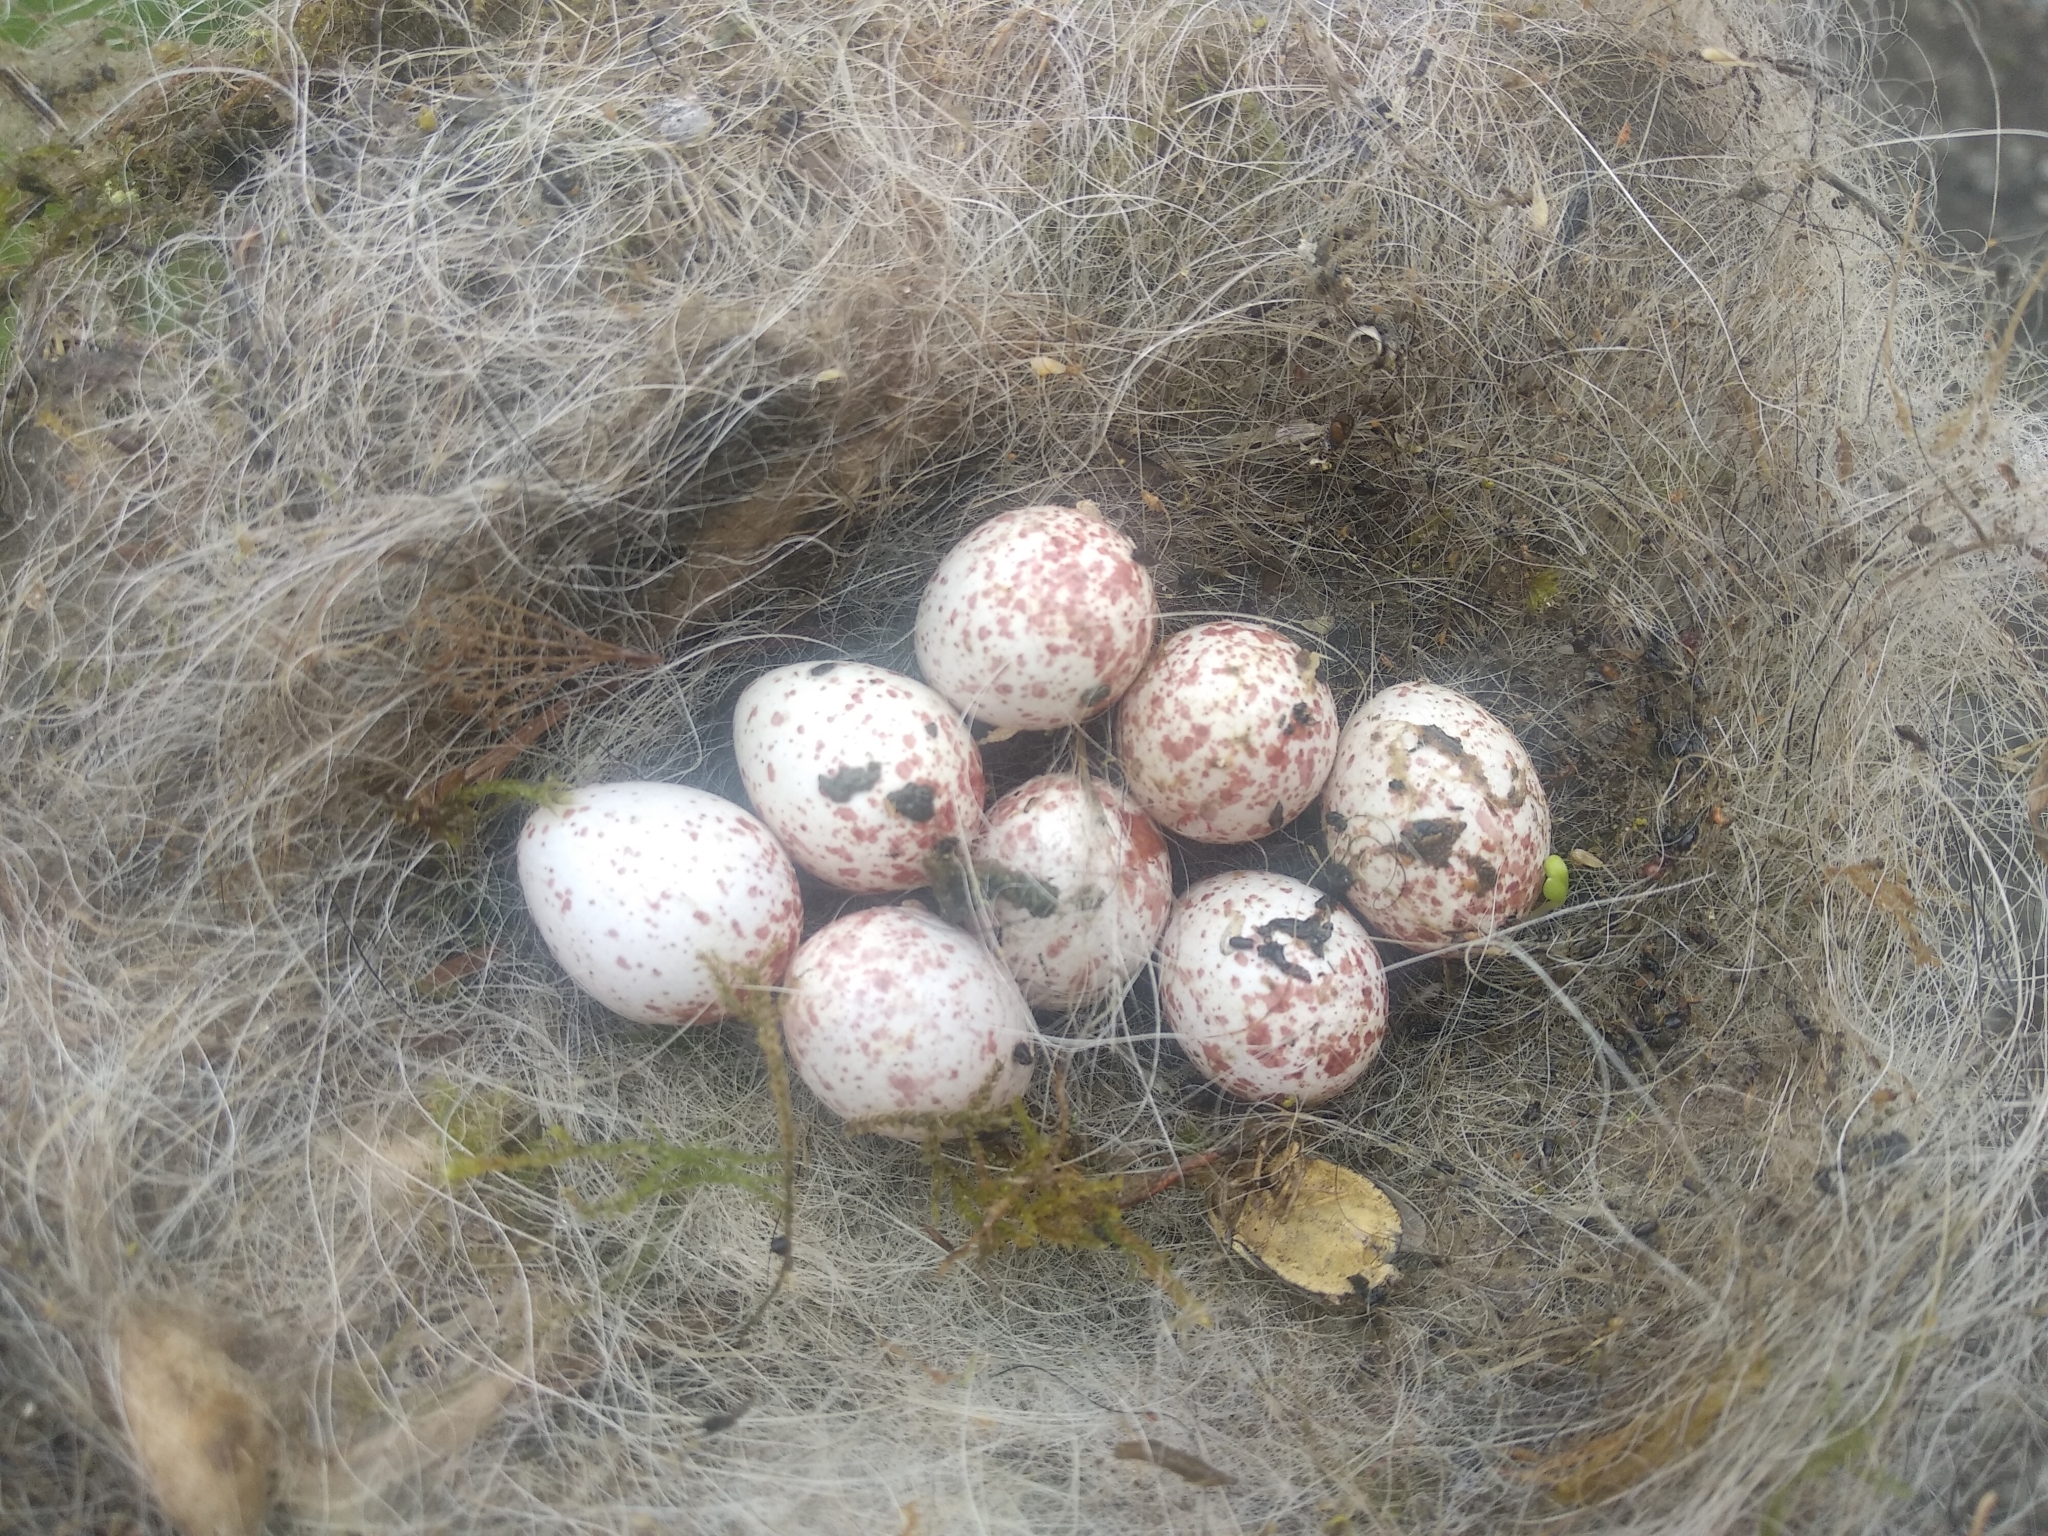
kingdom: Animalia
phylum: Chordata
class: Aves
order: Passeriformes
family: Paridae
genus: Parus
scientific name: Parus major
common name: Great tit
